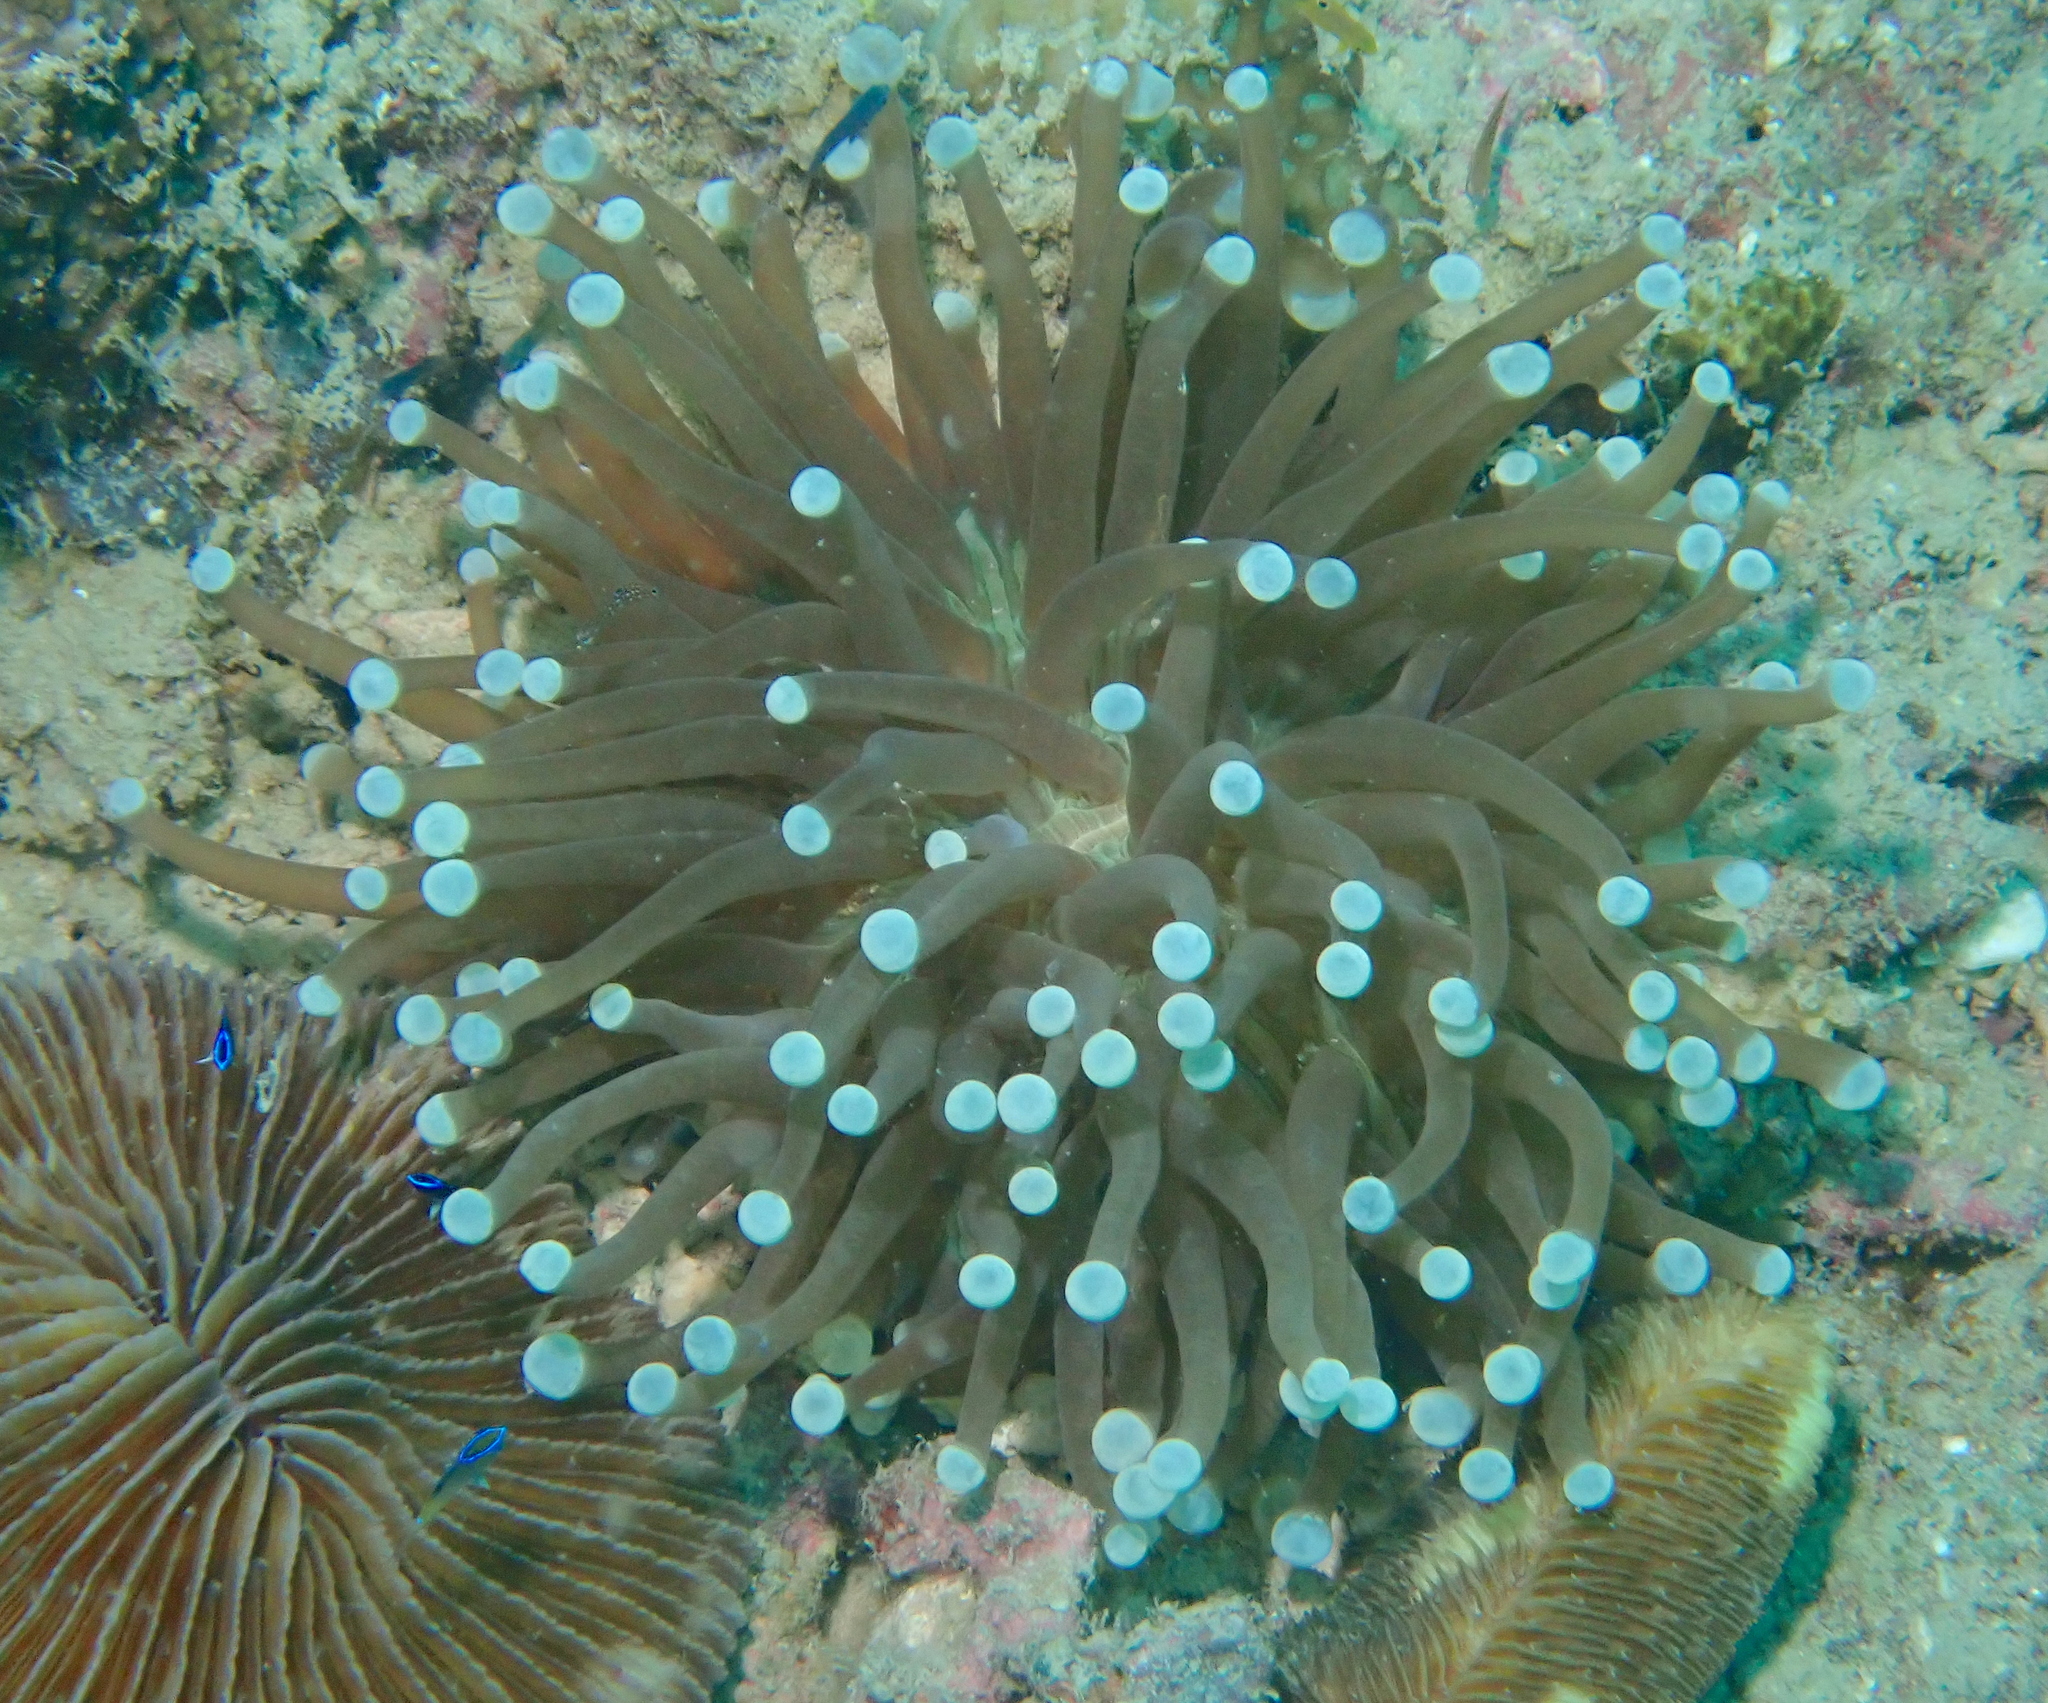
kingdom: Animalia
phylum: Cnidaria
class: Anthozoa
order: Scleractinia
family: Fungiidae
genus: Heliofungia
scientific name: Heliofungia actiniformis
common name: Plate coral
